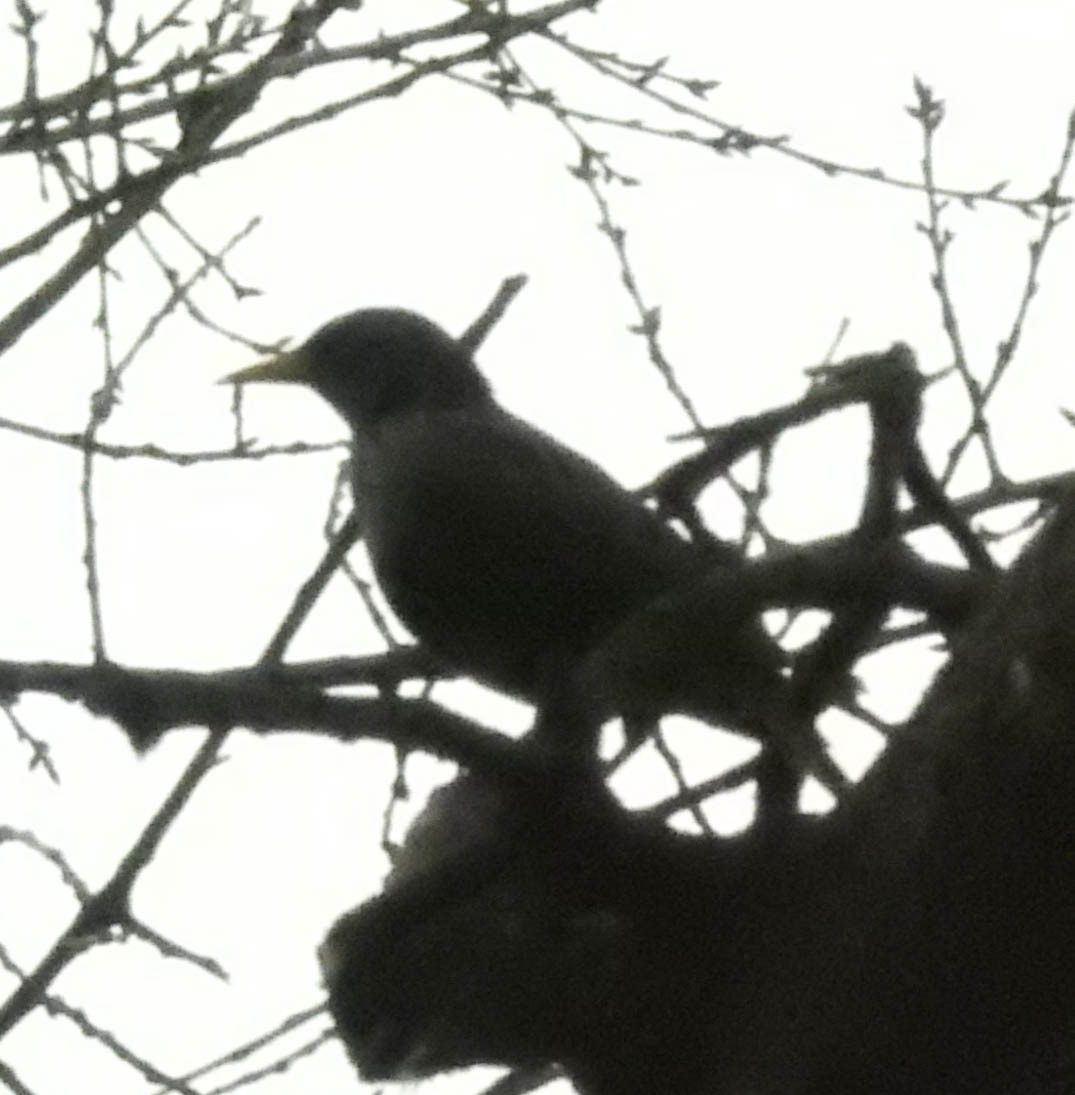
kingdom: Animalia
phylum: Chordata
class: Aves
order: Passeriformes
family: Sturnidae
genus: Sturnus
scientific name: Sturnus vulgaris
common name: Common starling
